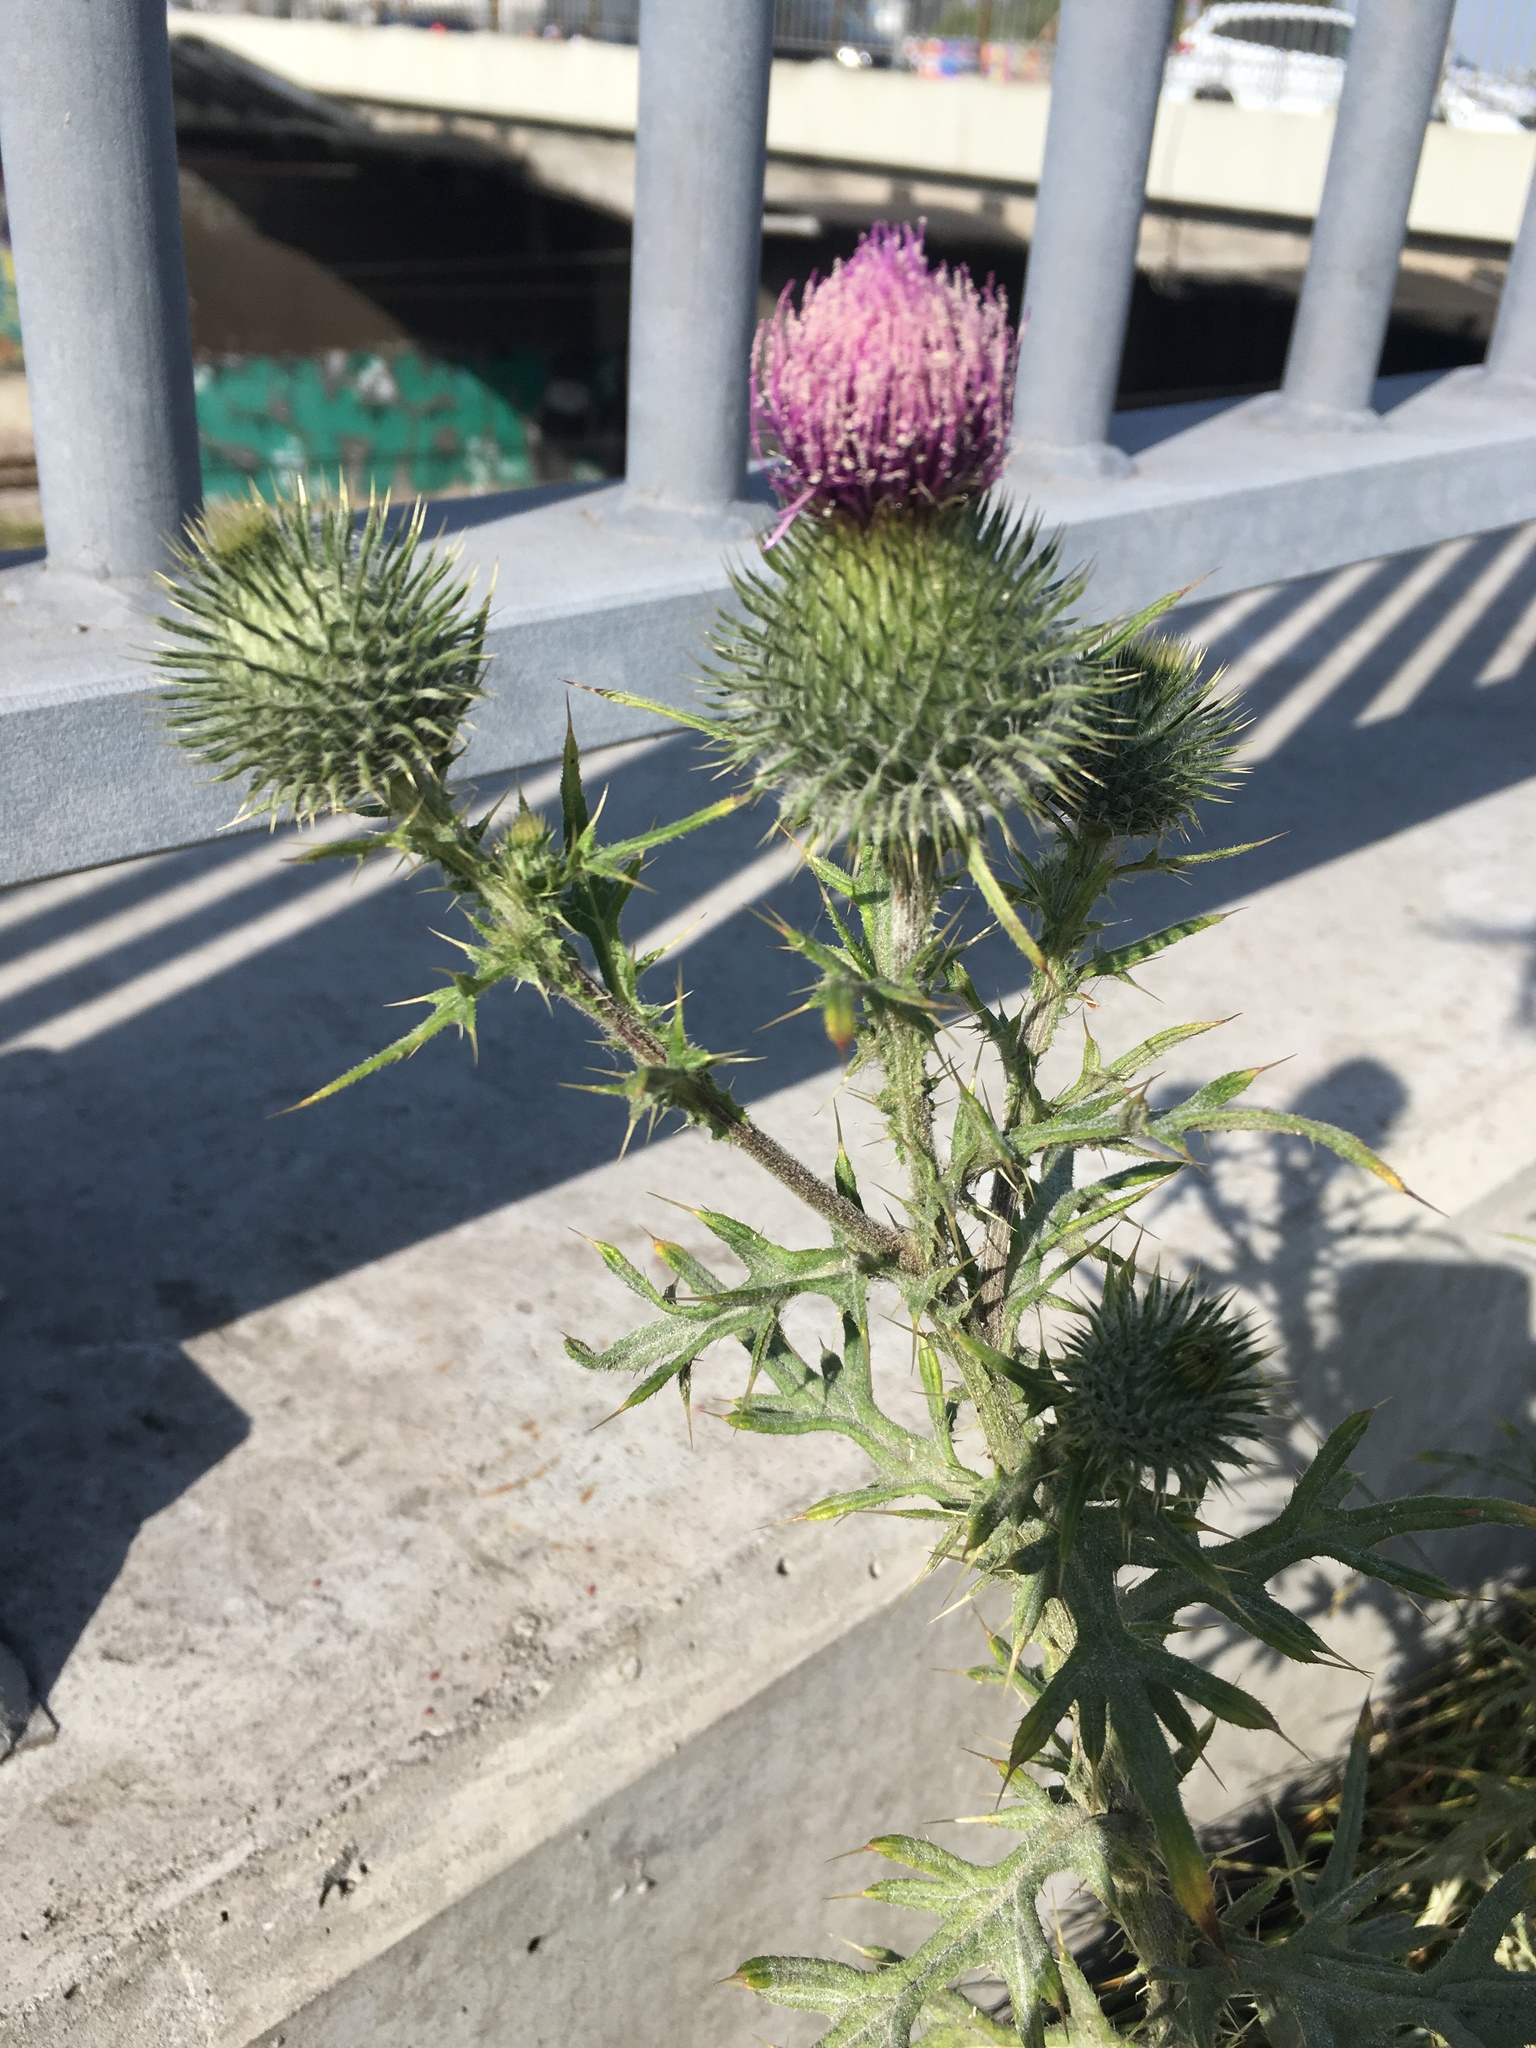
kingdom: Plantae
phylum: Tracheophyta
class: Magnoliopsida
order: Asterales
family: Asteraceae
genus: Cirsium
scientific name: Cirsium vulgare
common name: Bull thistle
